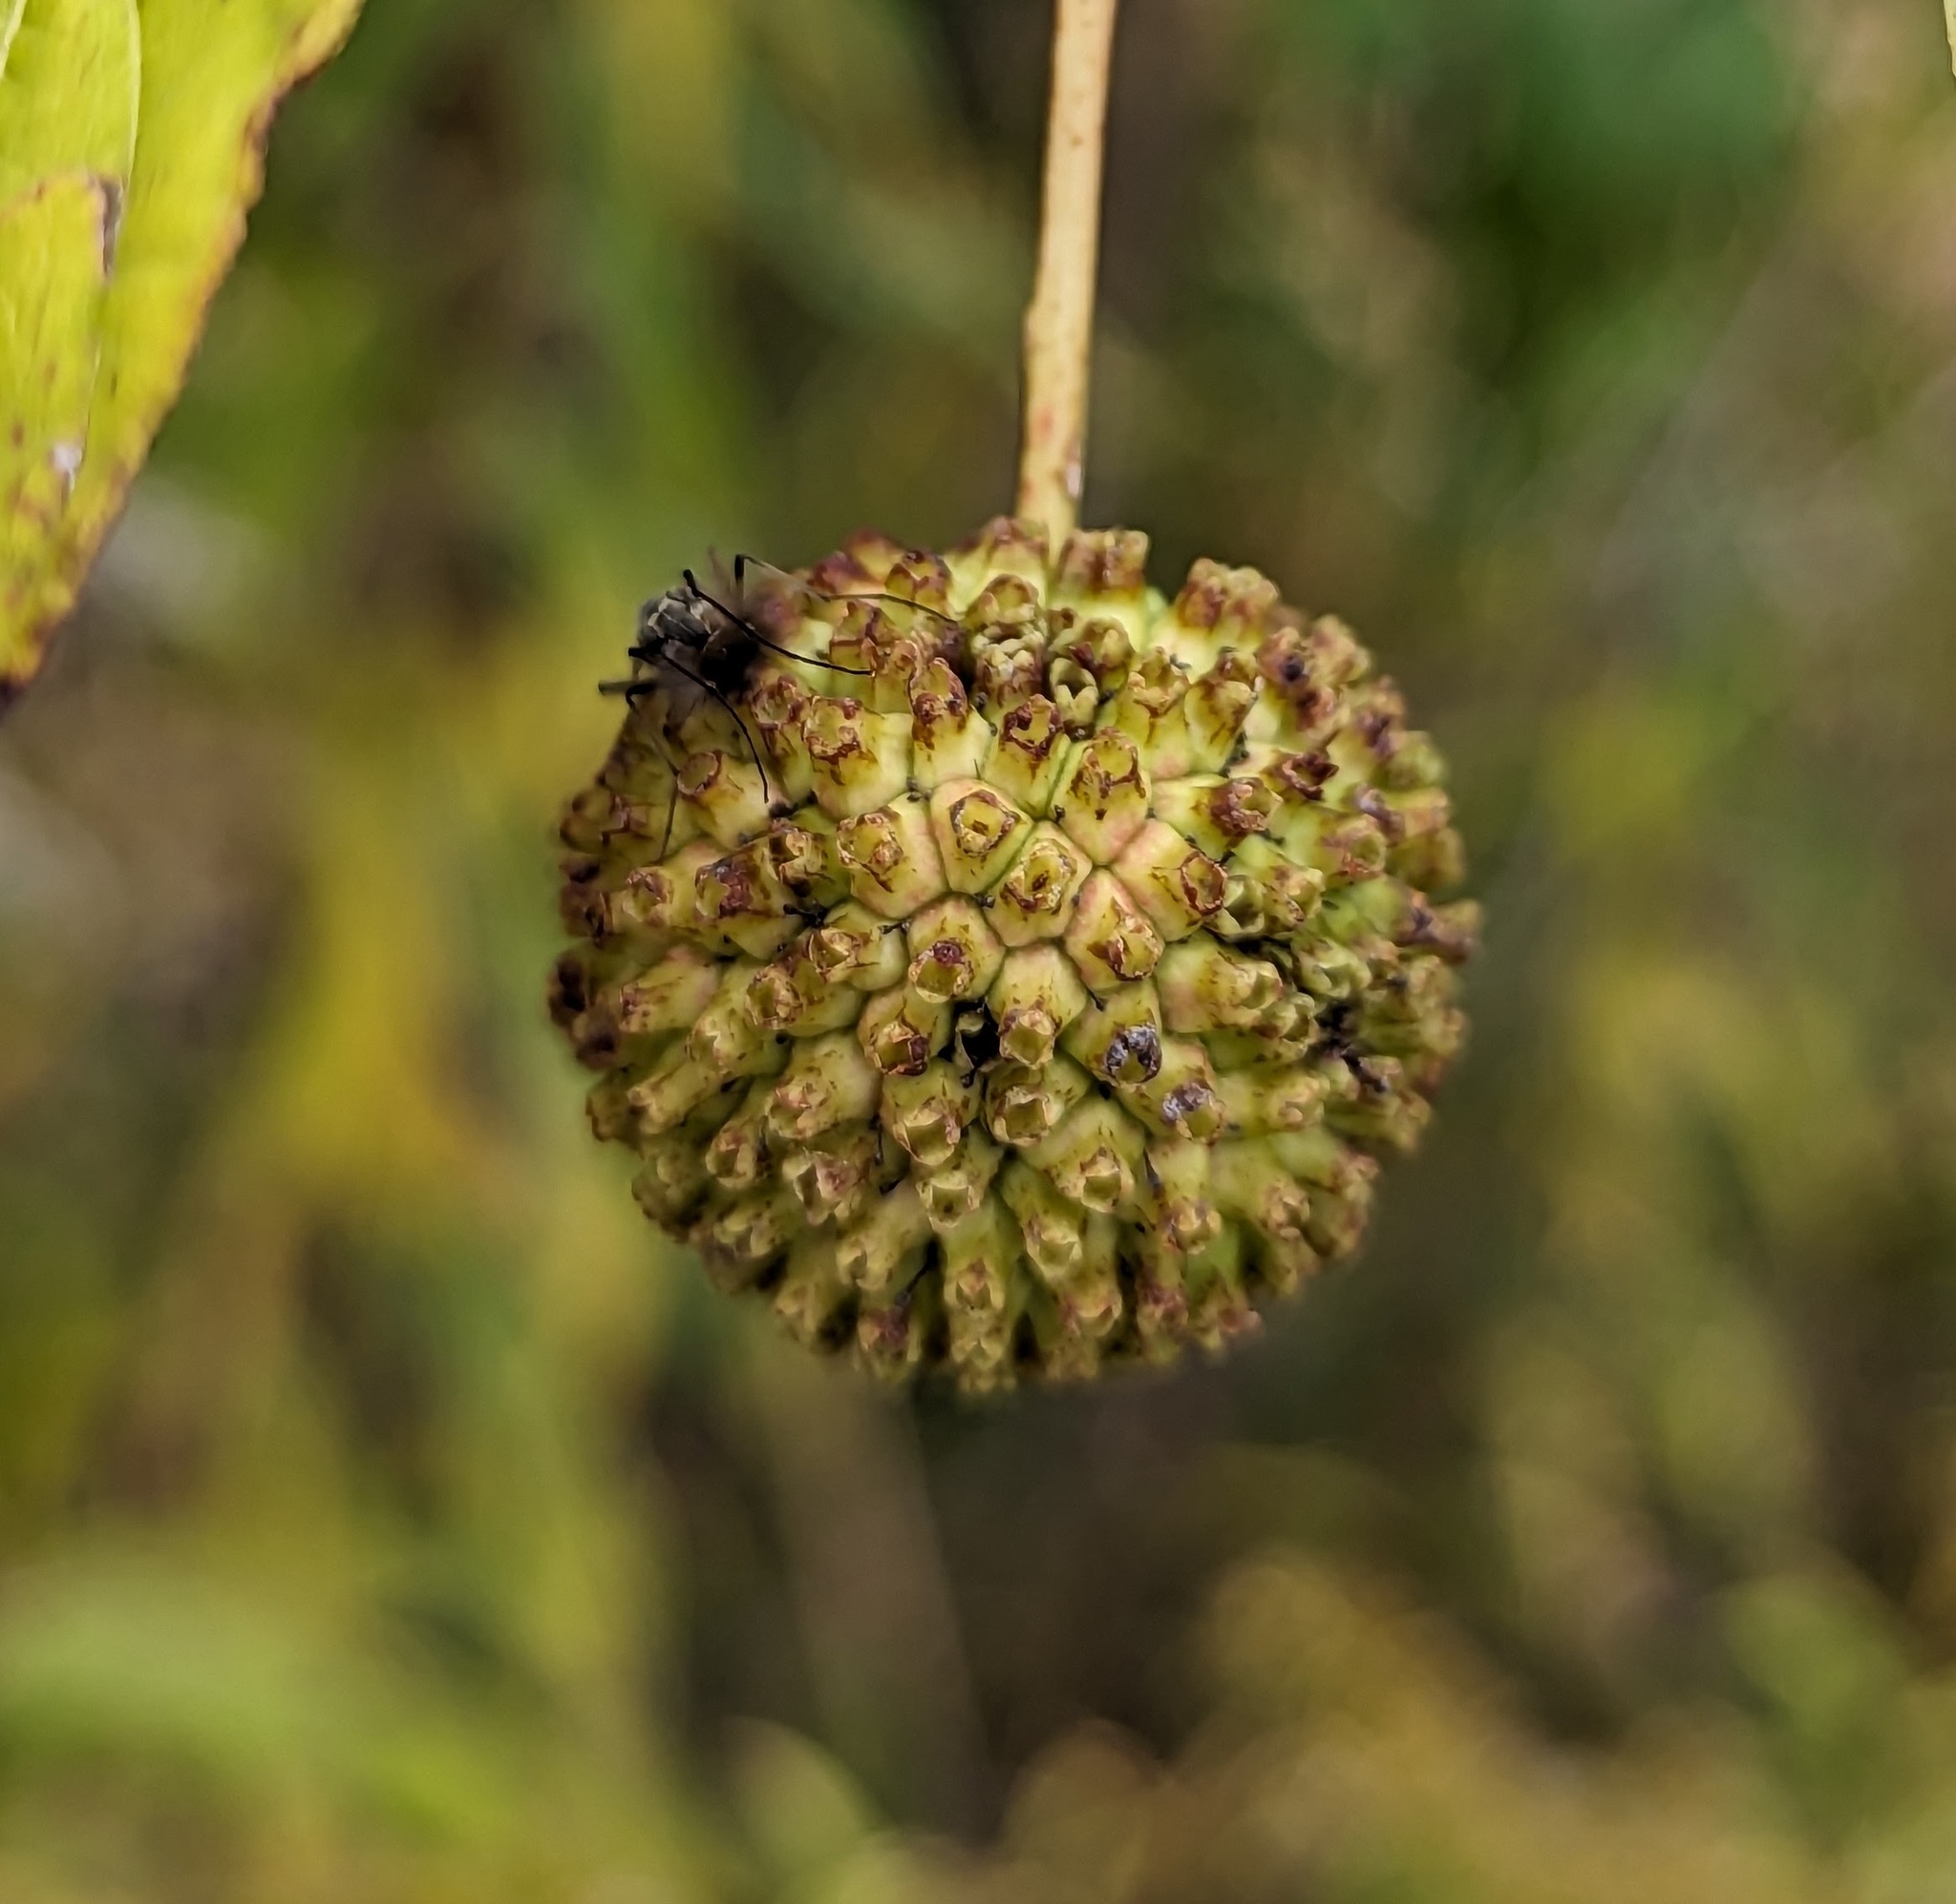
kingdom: Plantae
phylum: Tracheophyta
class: Magnoliopsida
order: Gentianales
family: Rubiaceae
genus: Cephalanthus
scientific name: Cephalanthus occidentalis
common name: Button-willow
